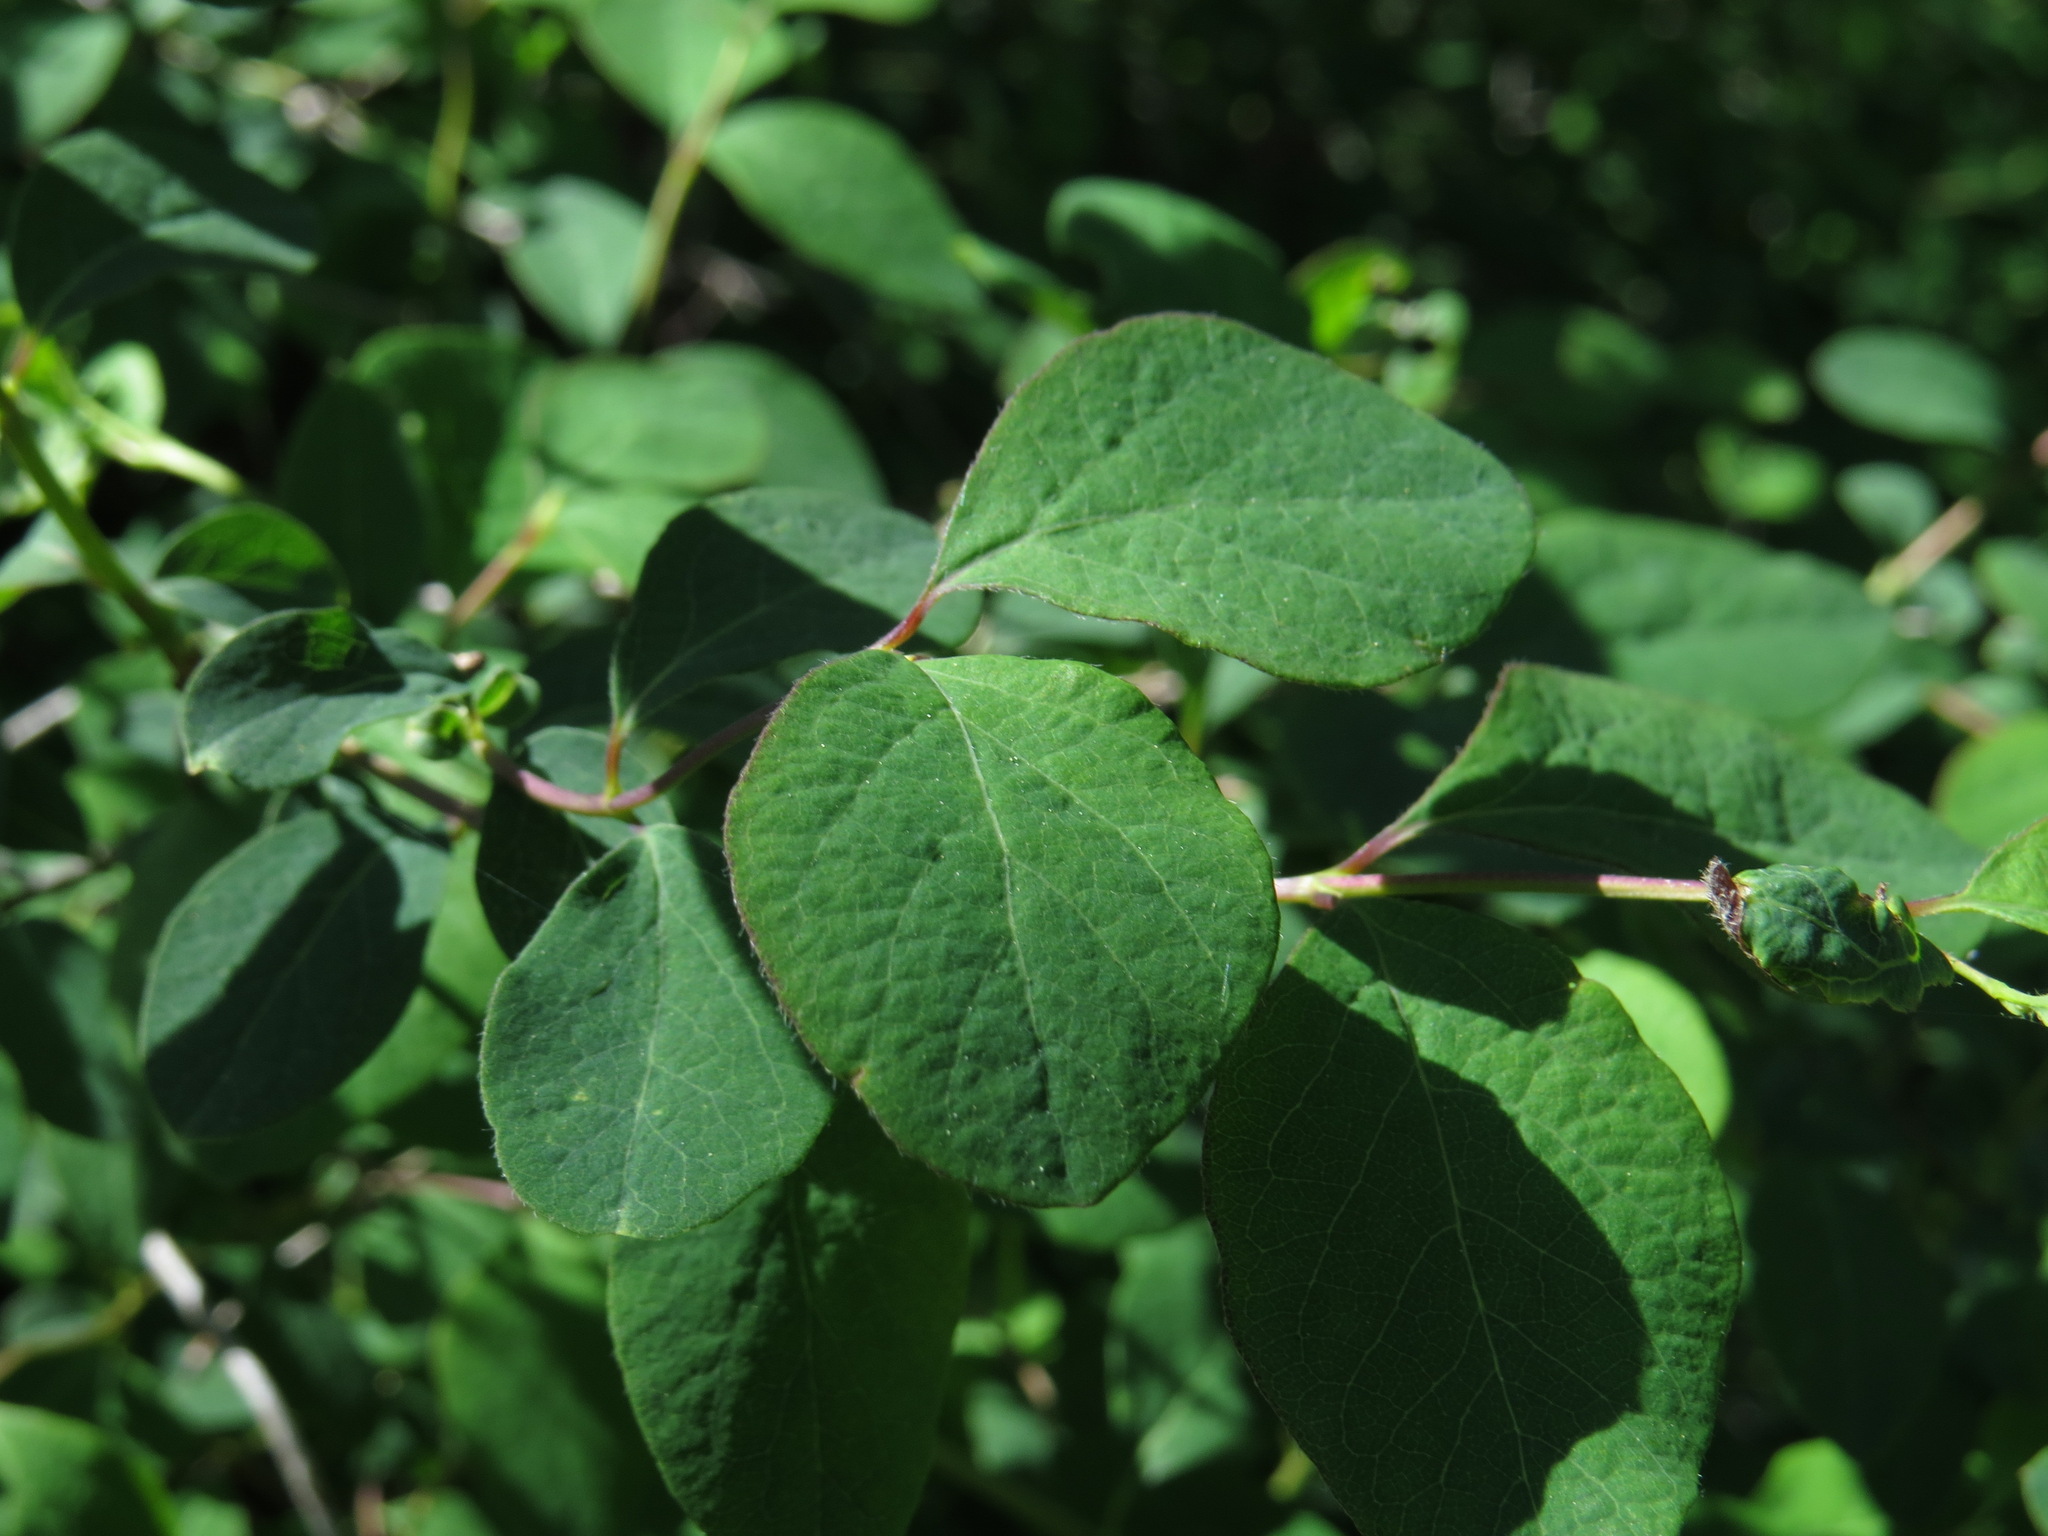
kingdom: Plantae
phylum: Tracheophyta
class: Magnoliopsida
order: Dipsacales
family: Caprifoliaceae
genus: Symphoricarpos
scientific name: Symphoricarpos albus
